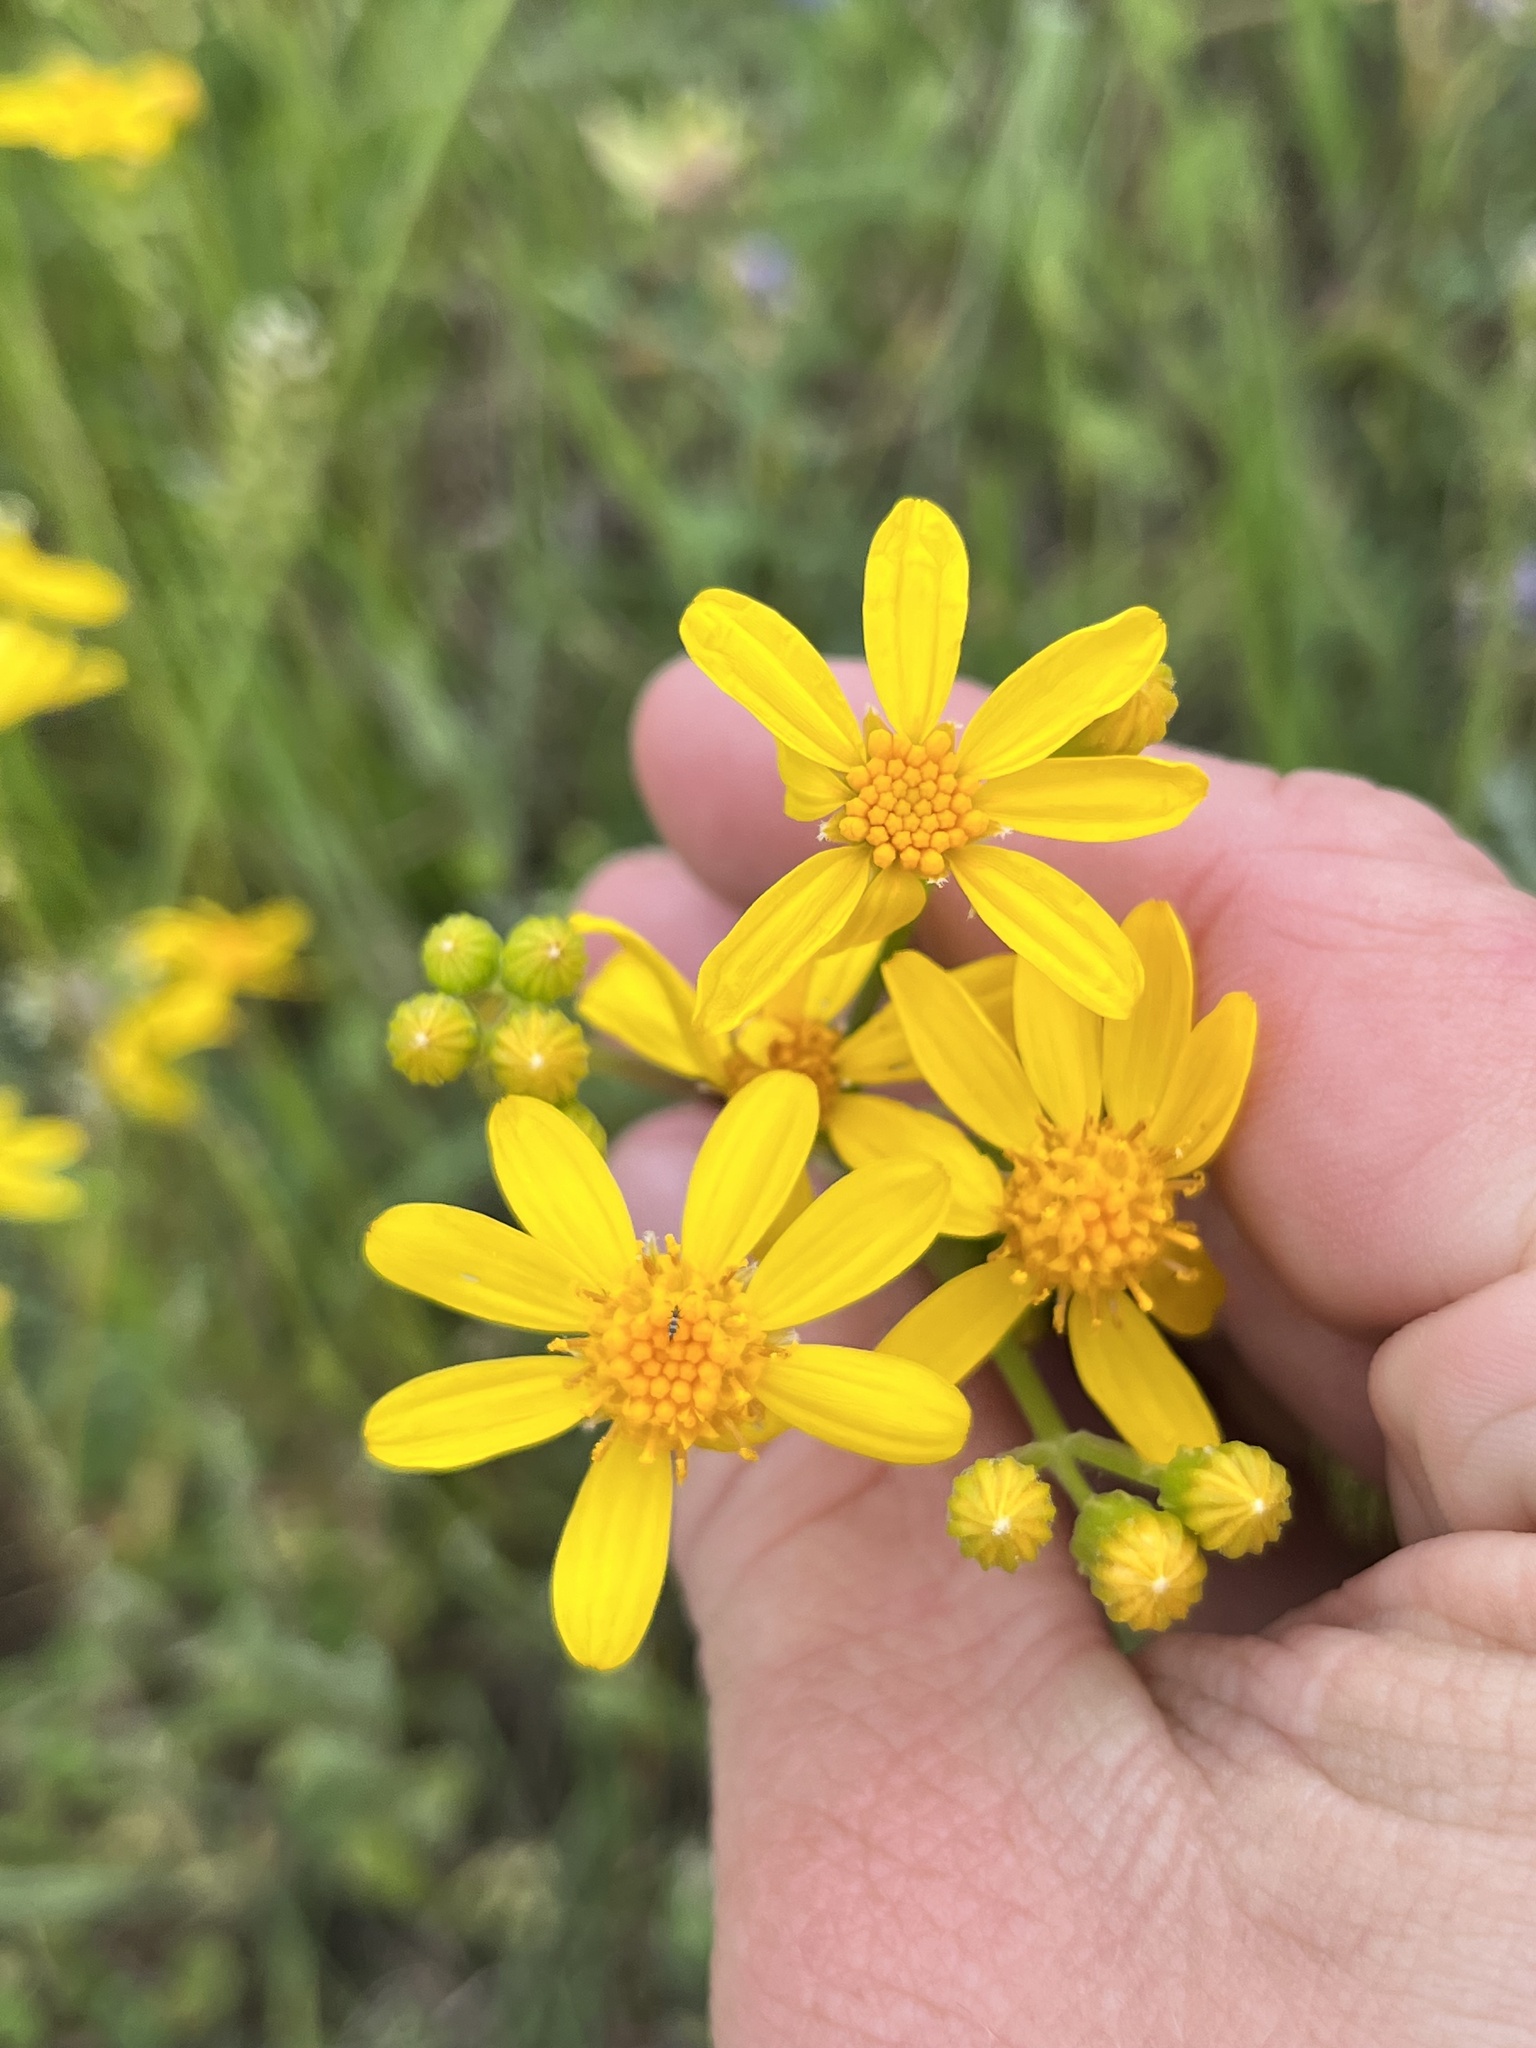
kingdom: Plantae
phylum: Tracheophyta
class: Magnoliopsida
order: Asterales
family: Asteraceae
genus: Senecio
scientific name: Senecio ampullaceus
